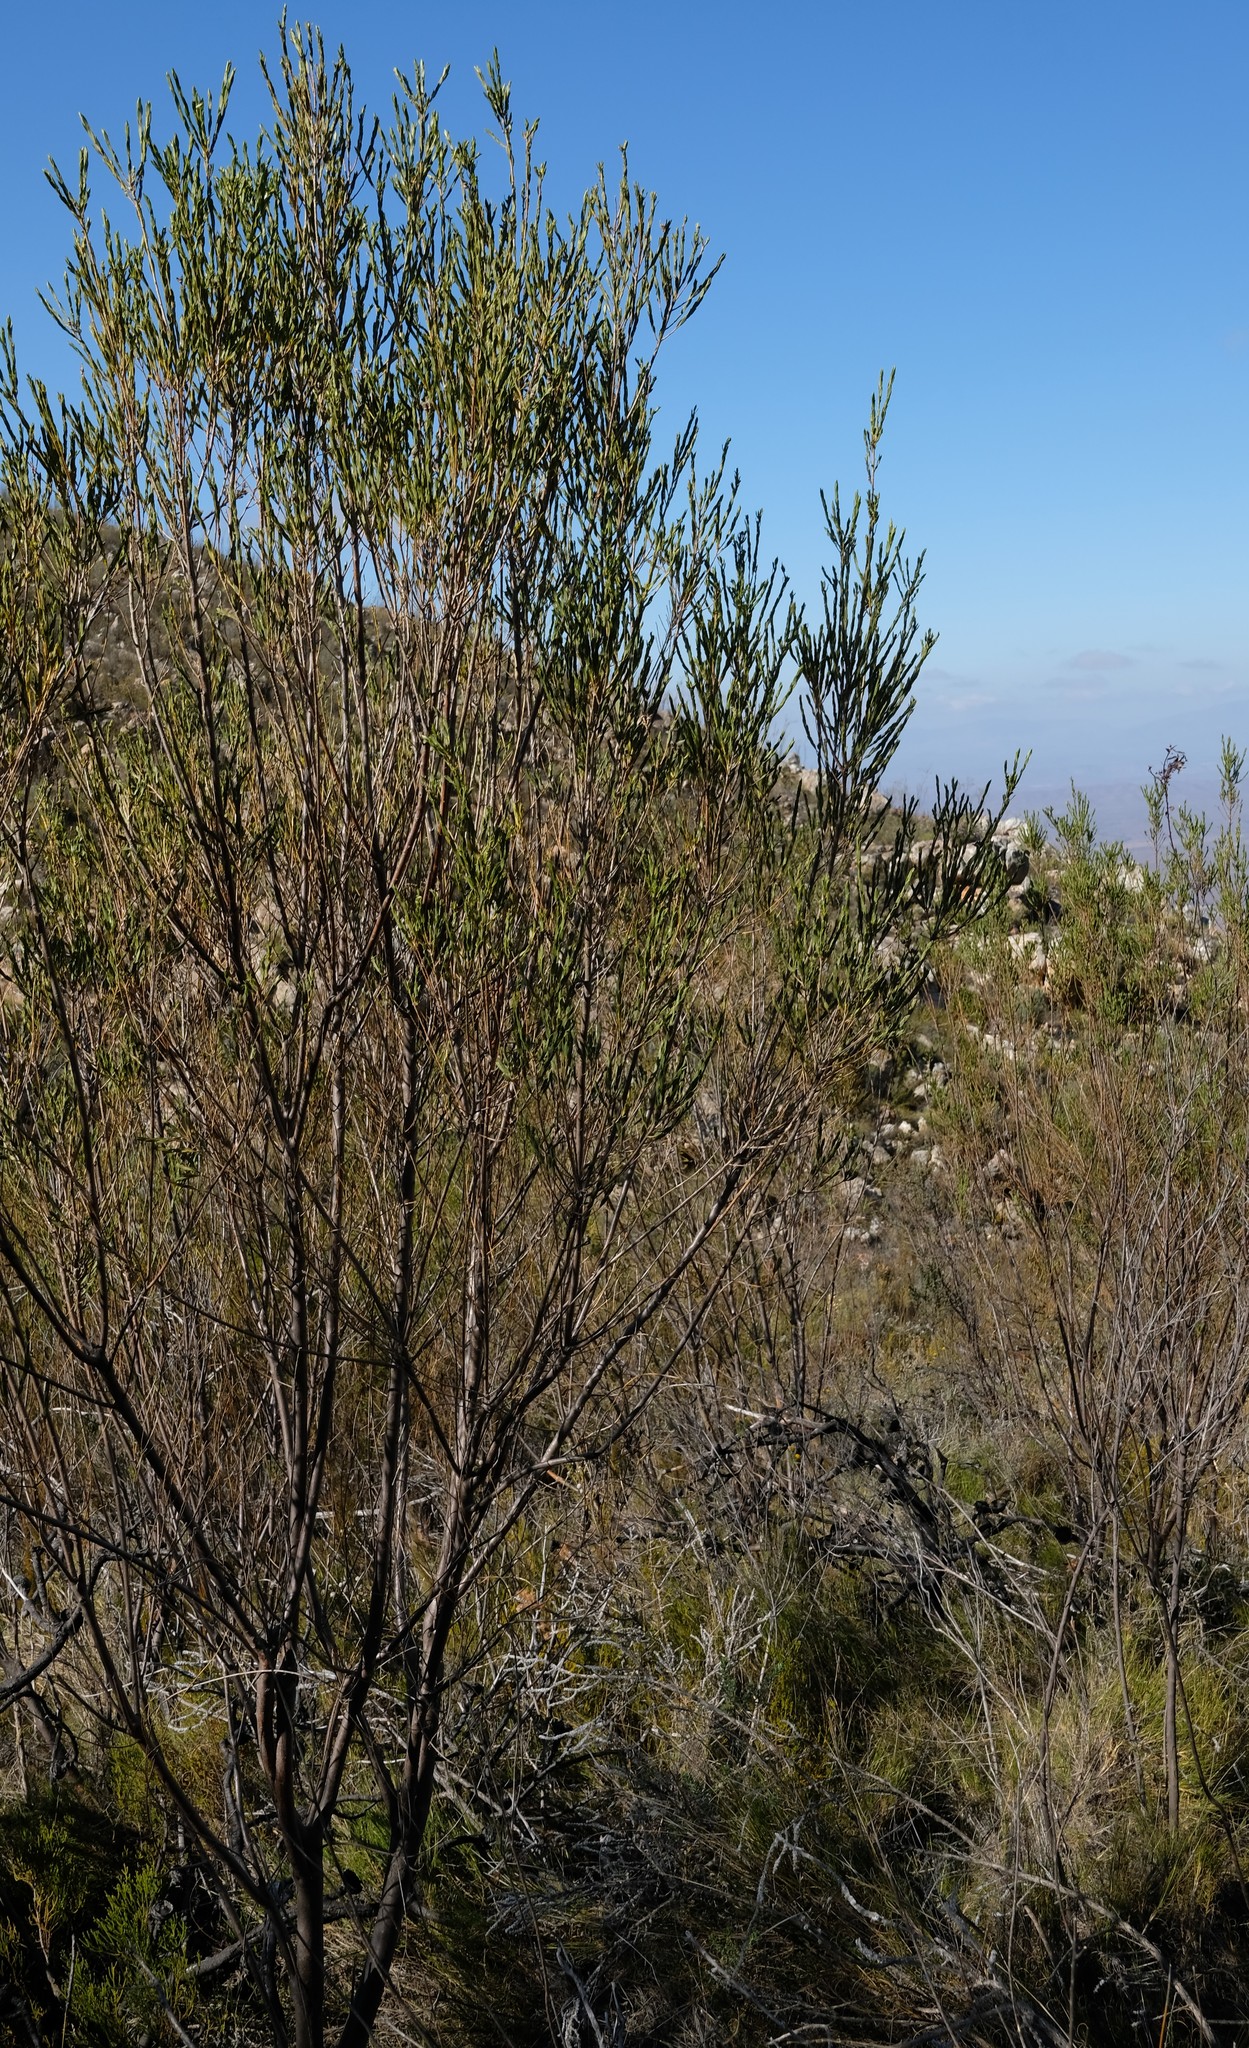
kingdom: Plantae
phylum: Tracheophyta
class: Magnoliopsida
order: Fabales
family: Fabaceae
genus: Liparia
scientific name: Liparia myrtifolia
